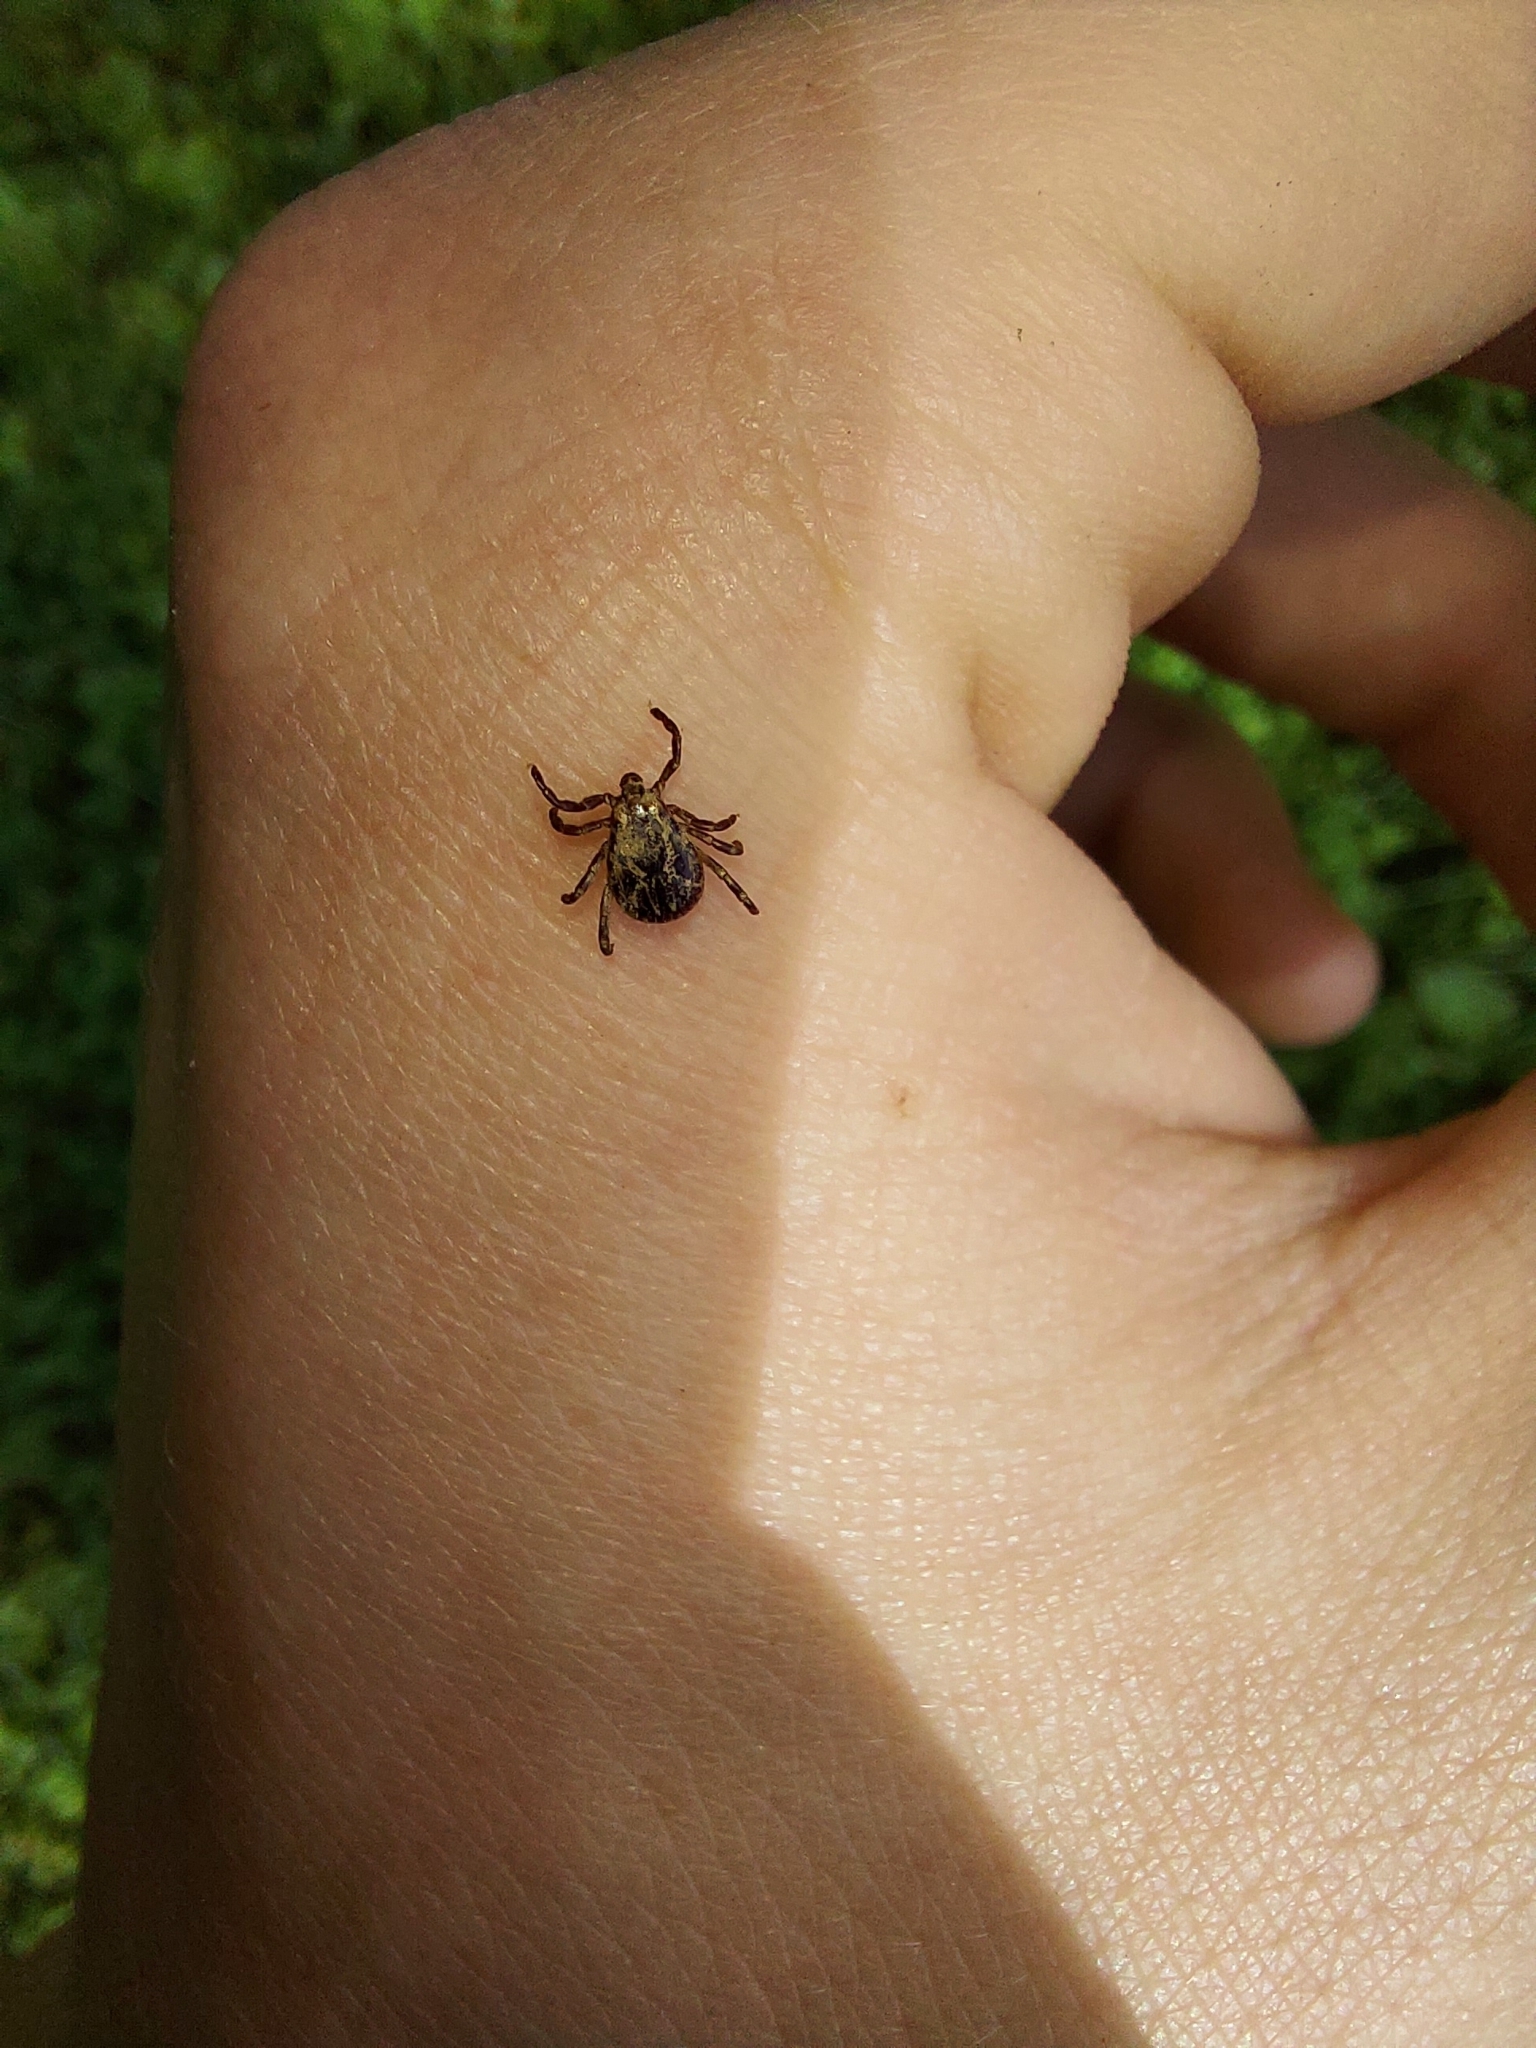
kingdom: Animalia
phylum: Arthropoda
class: Arachnida
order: Ixodida
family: Ixodidae
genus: Dermacentor
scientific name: Dermacentor variabilis
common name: American dog tick
